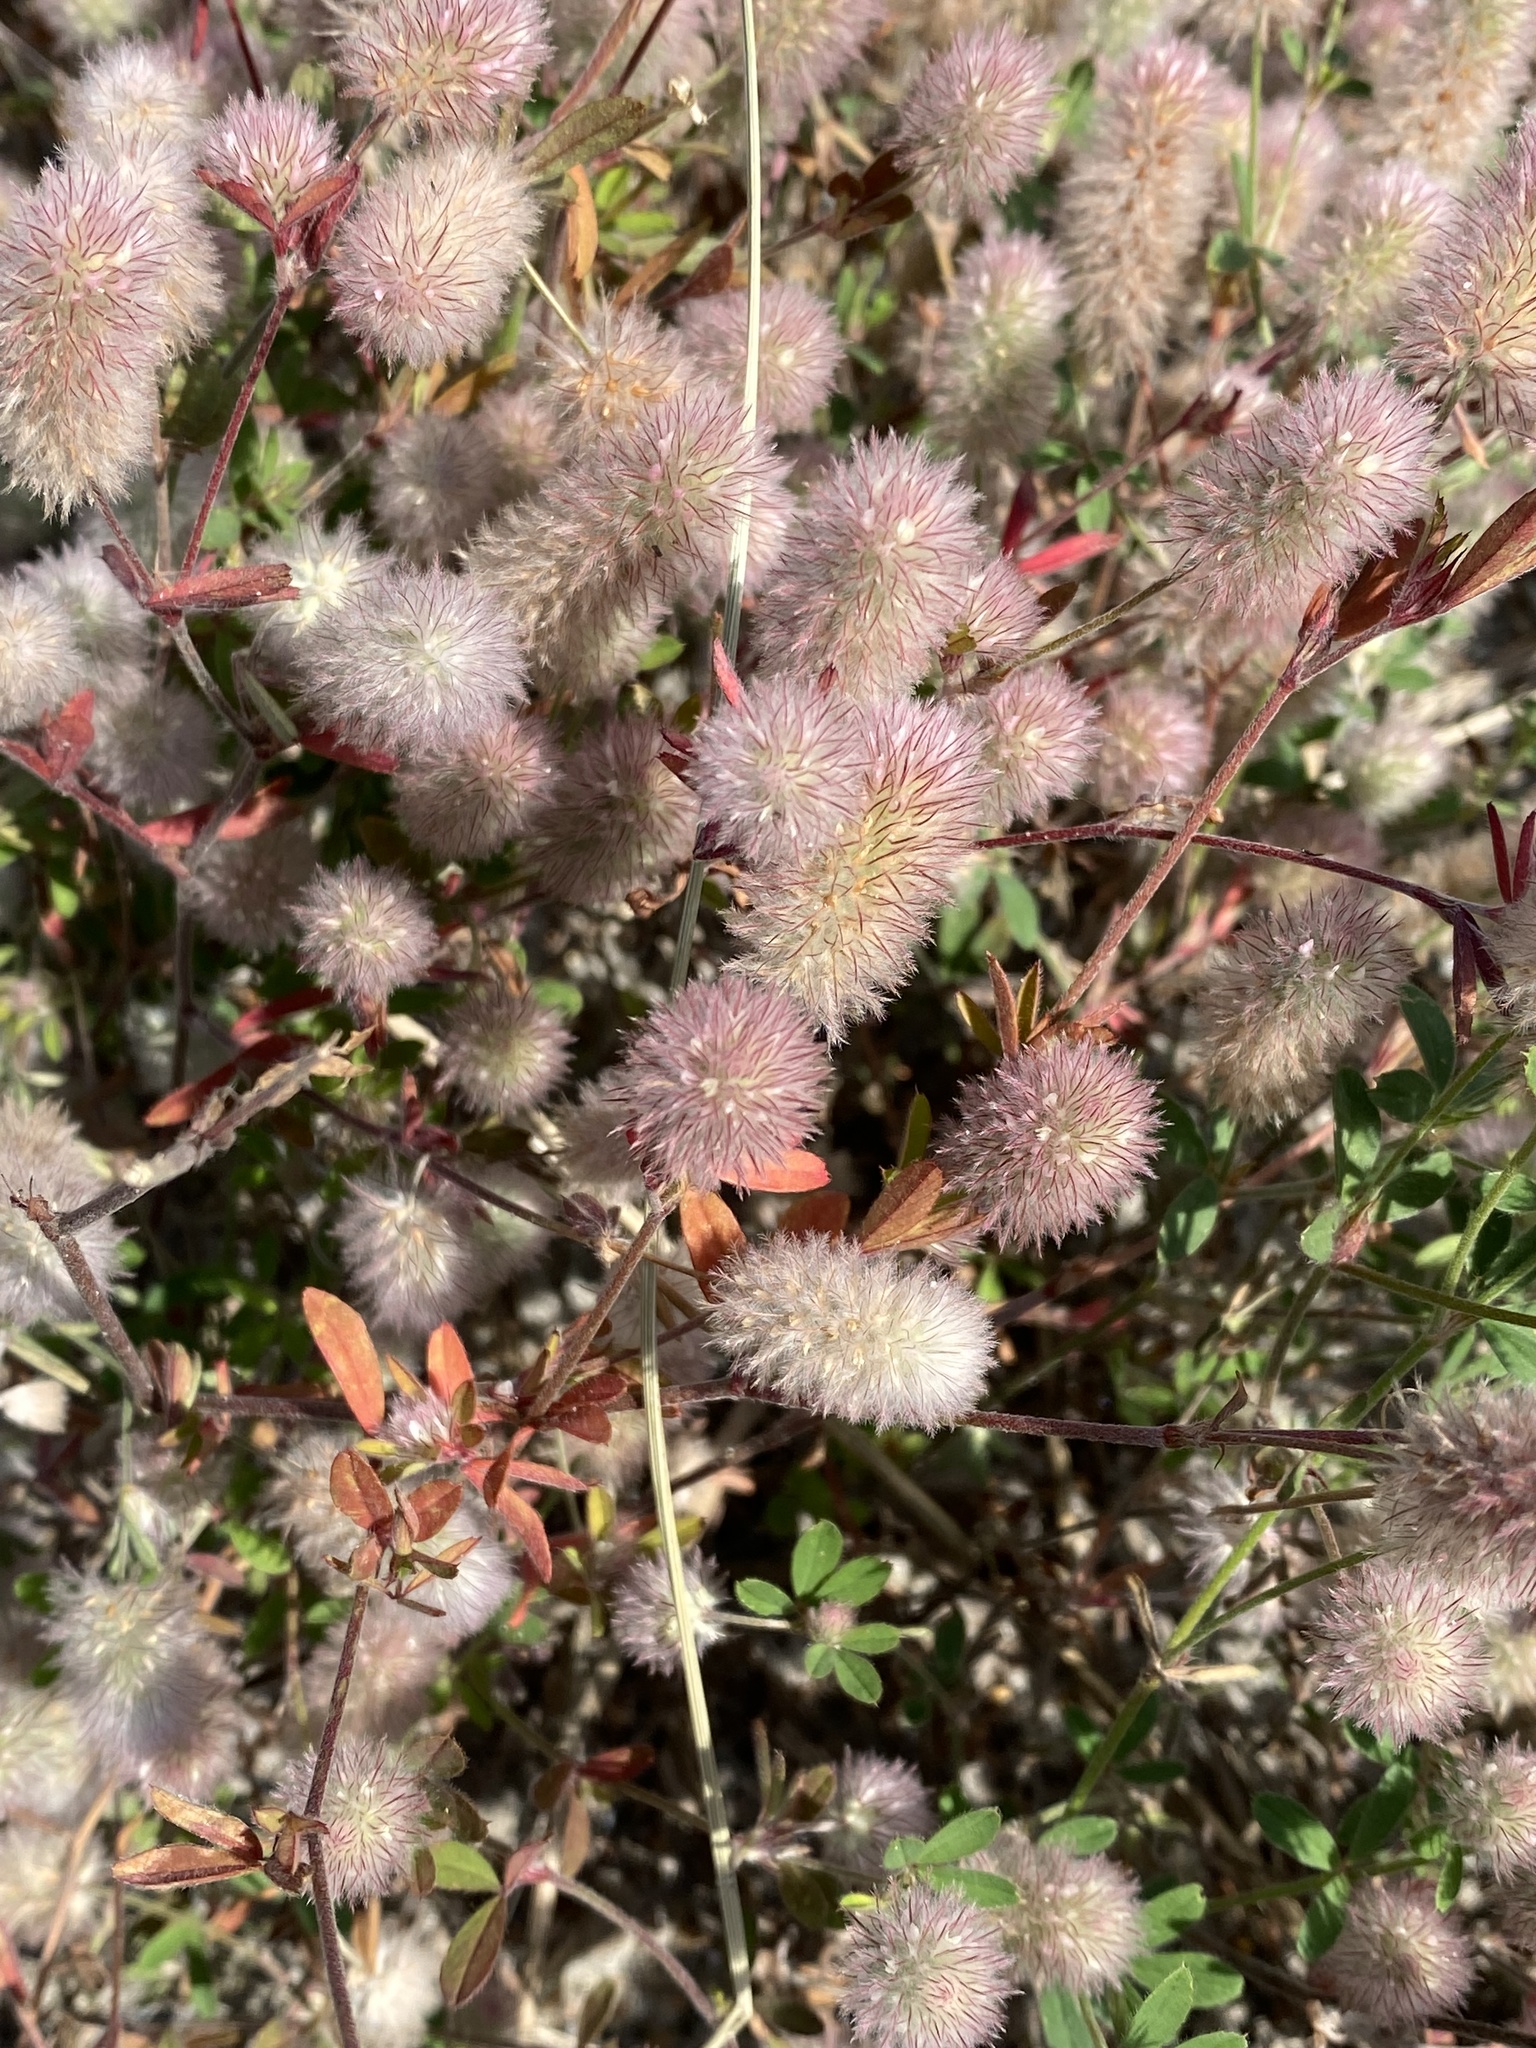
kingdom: Plantae
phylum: Tracheophyta
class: Magnoliopsida
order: Fabales
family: Fabaceae
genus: Trifolium
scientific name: Trifolium arvense
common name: Hare's-foot clover
